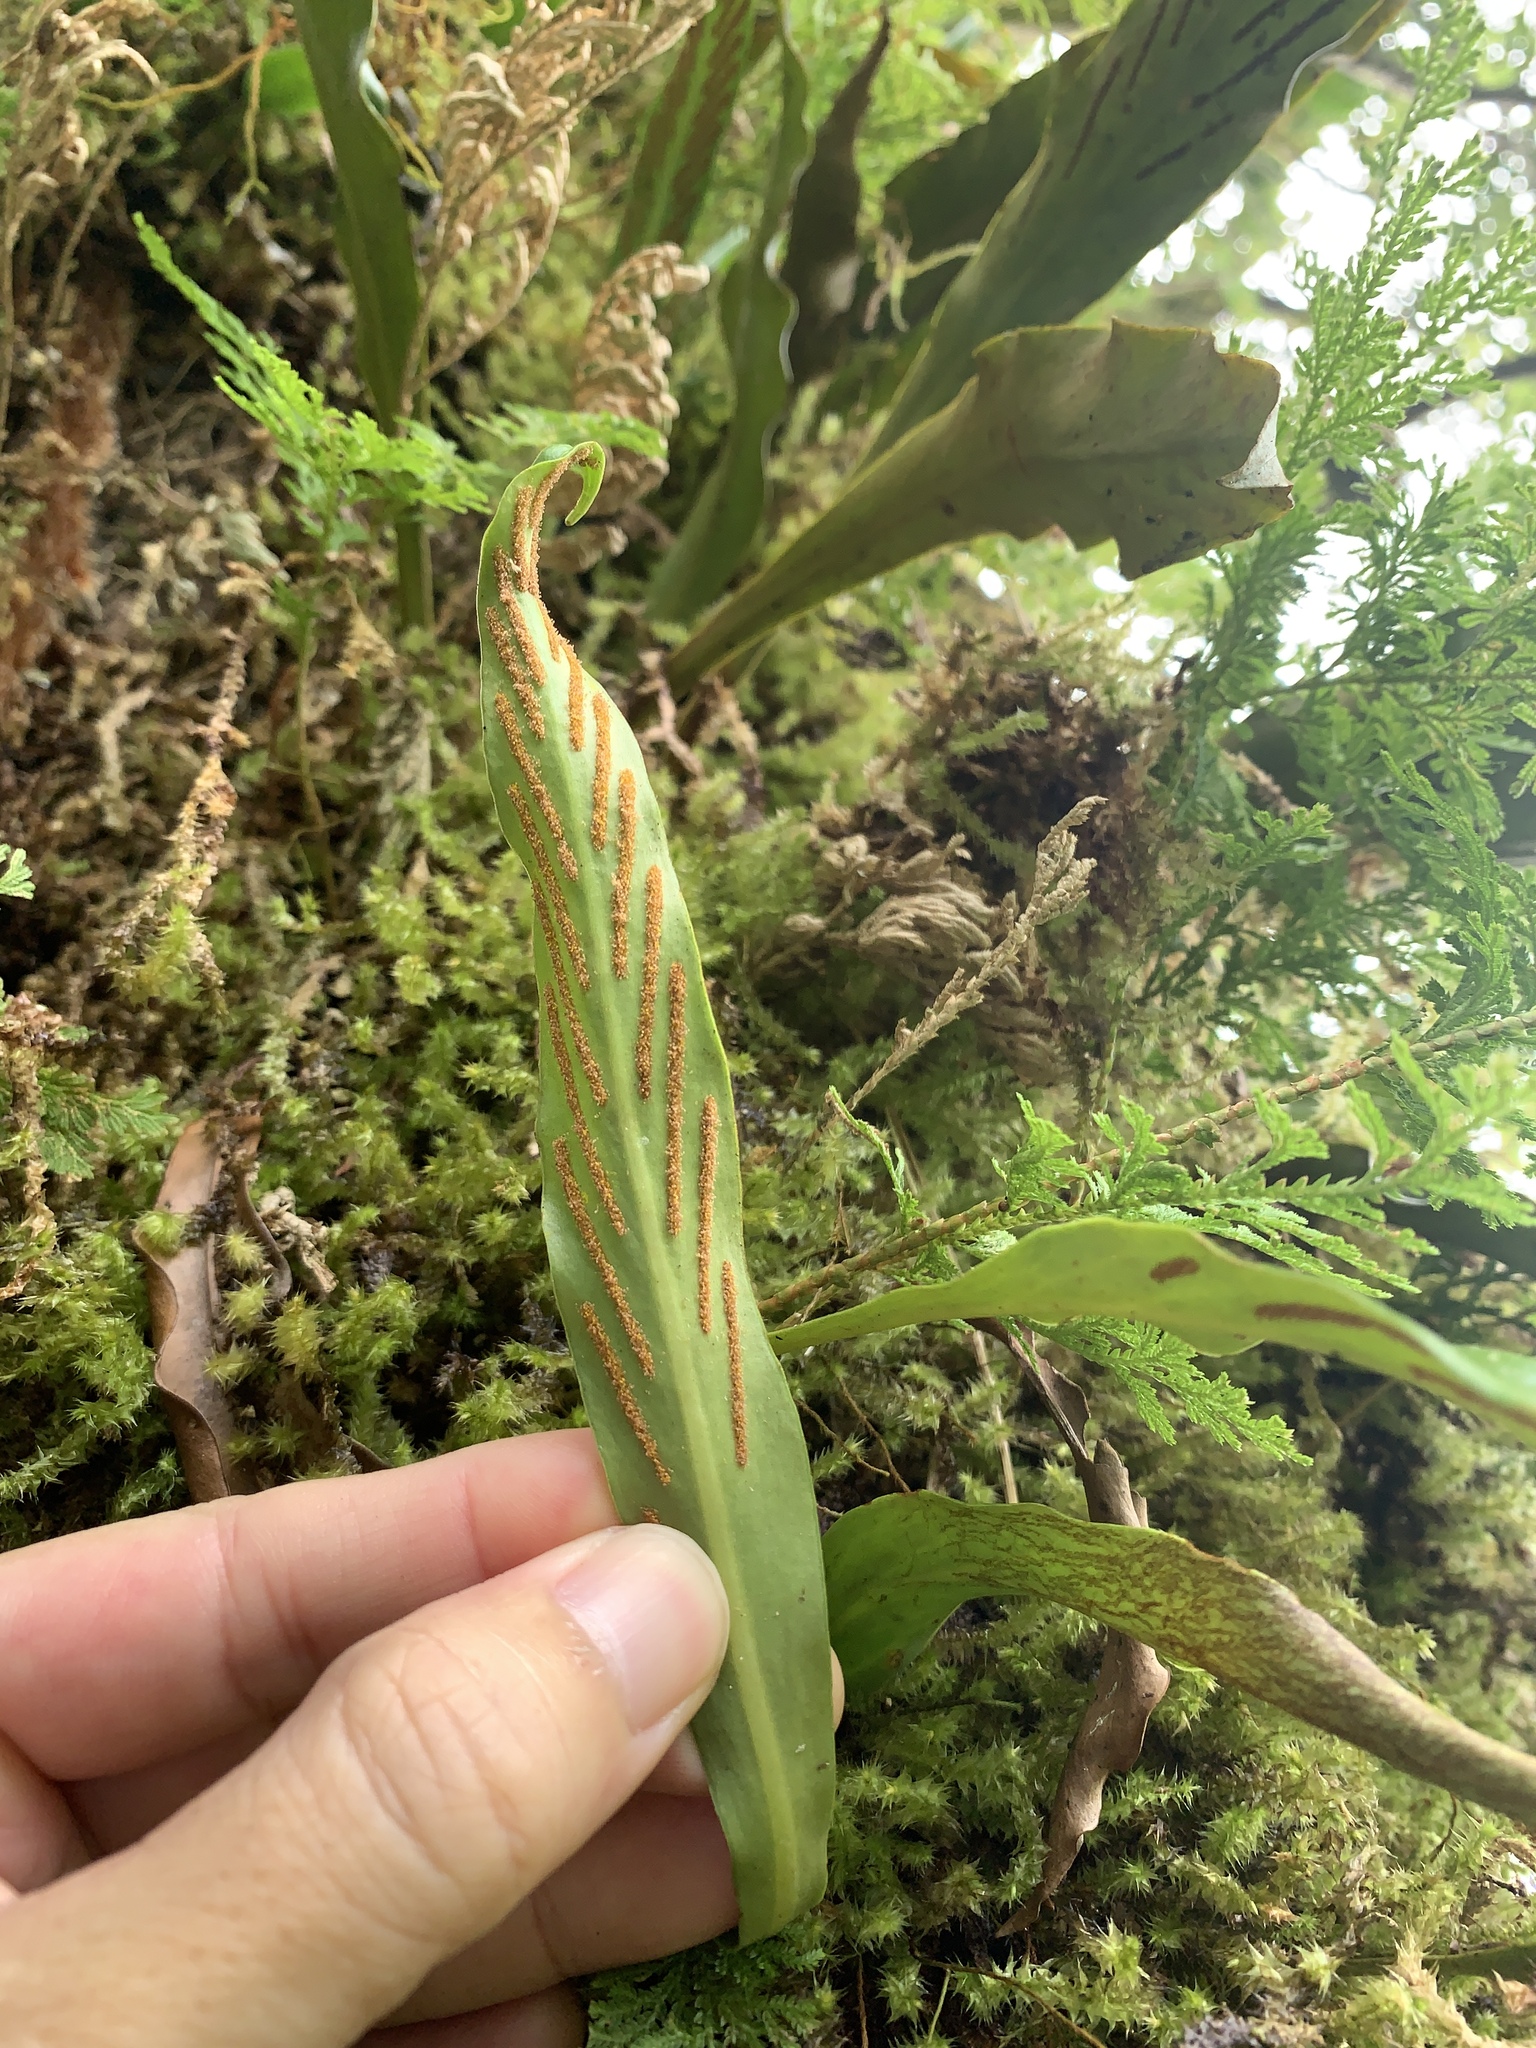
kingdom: Plantae
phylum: Tracheophyta
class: Polypodiopsida
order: Polypodiales
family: Polypodiaceae
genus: Loxogramme
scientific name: Loxogramme salicifolia
